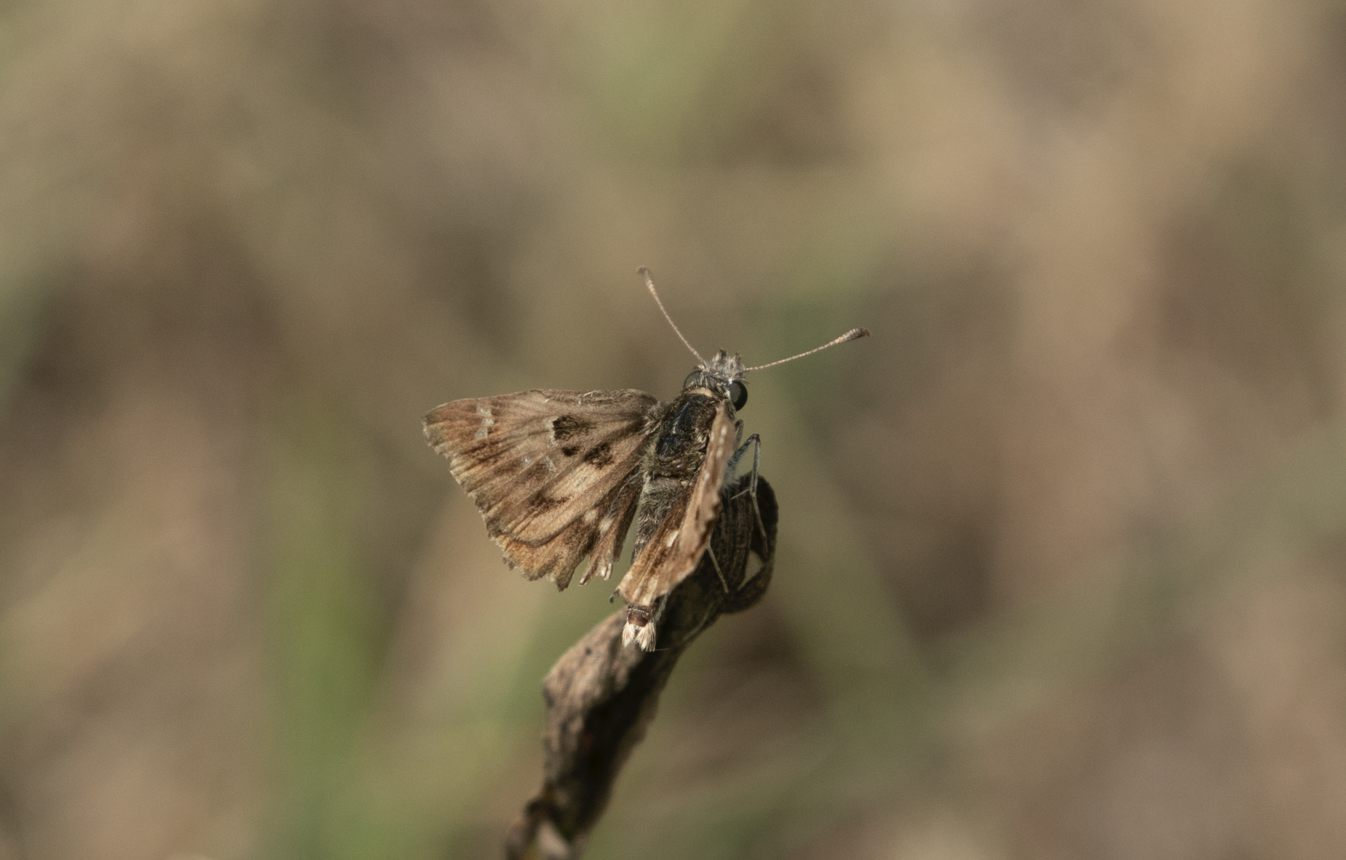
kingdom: Animalia
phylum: Arthropoda
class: Insecta
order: Lepidoptera
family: Hesperiidae
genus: Carcharodus
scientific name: Carcharodus alceae
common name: Mallow skipper
